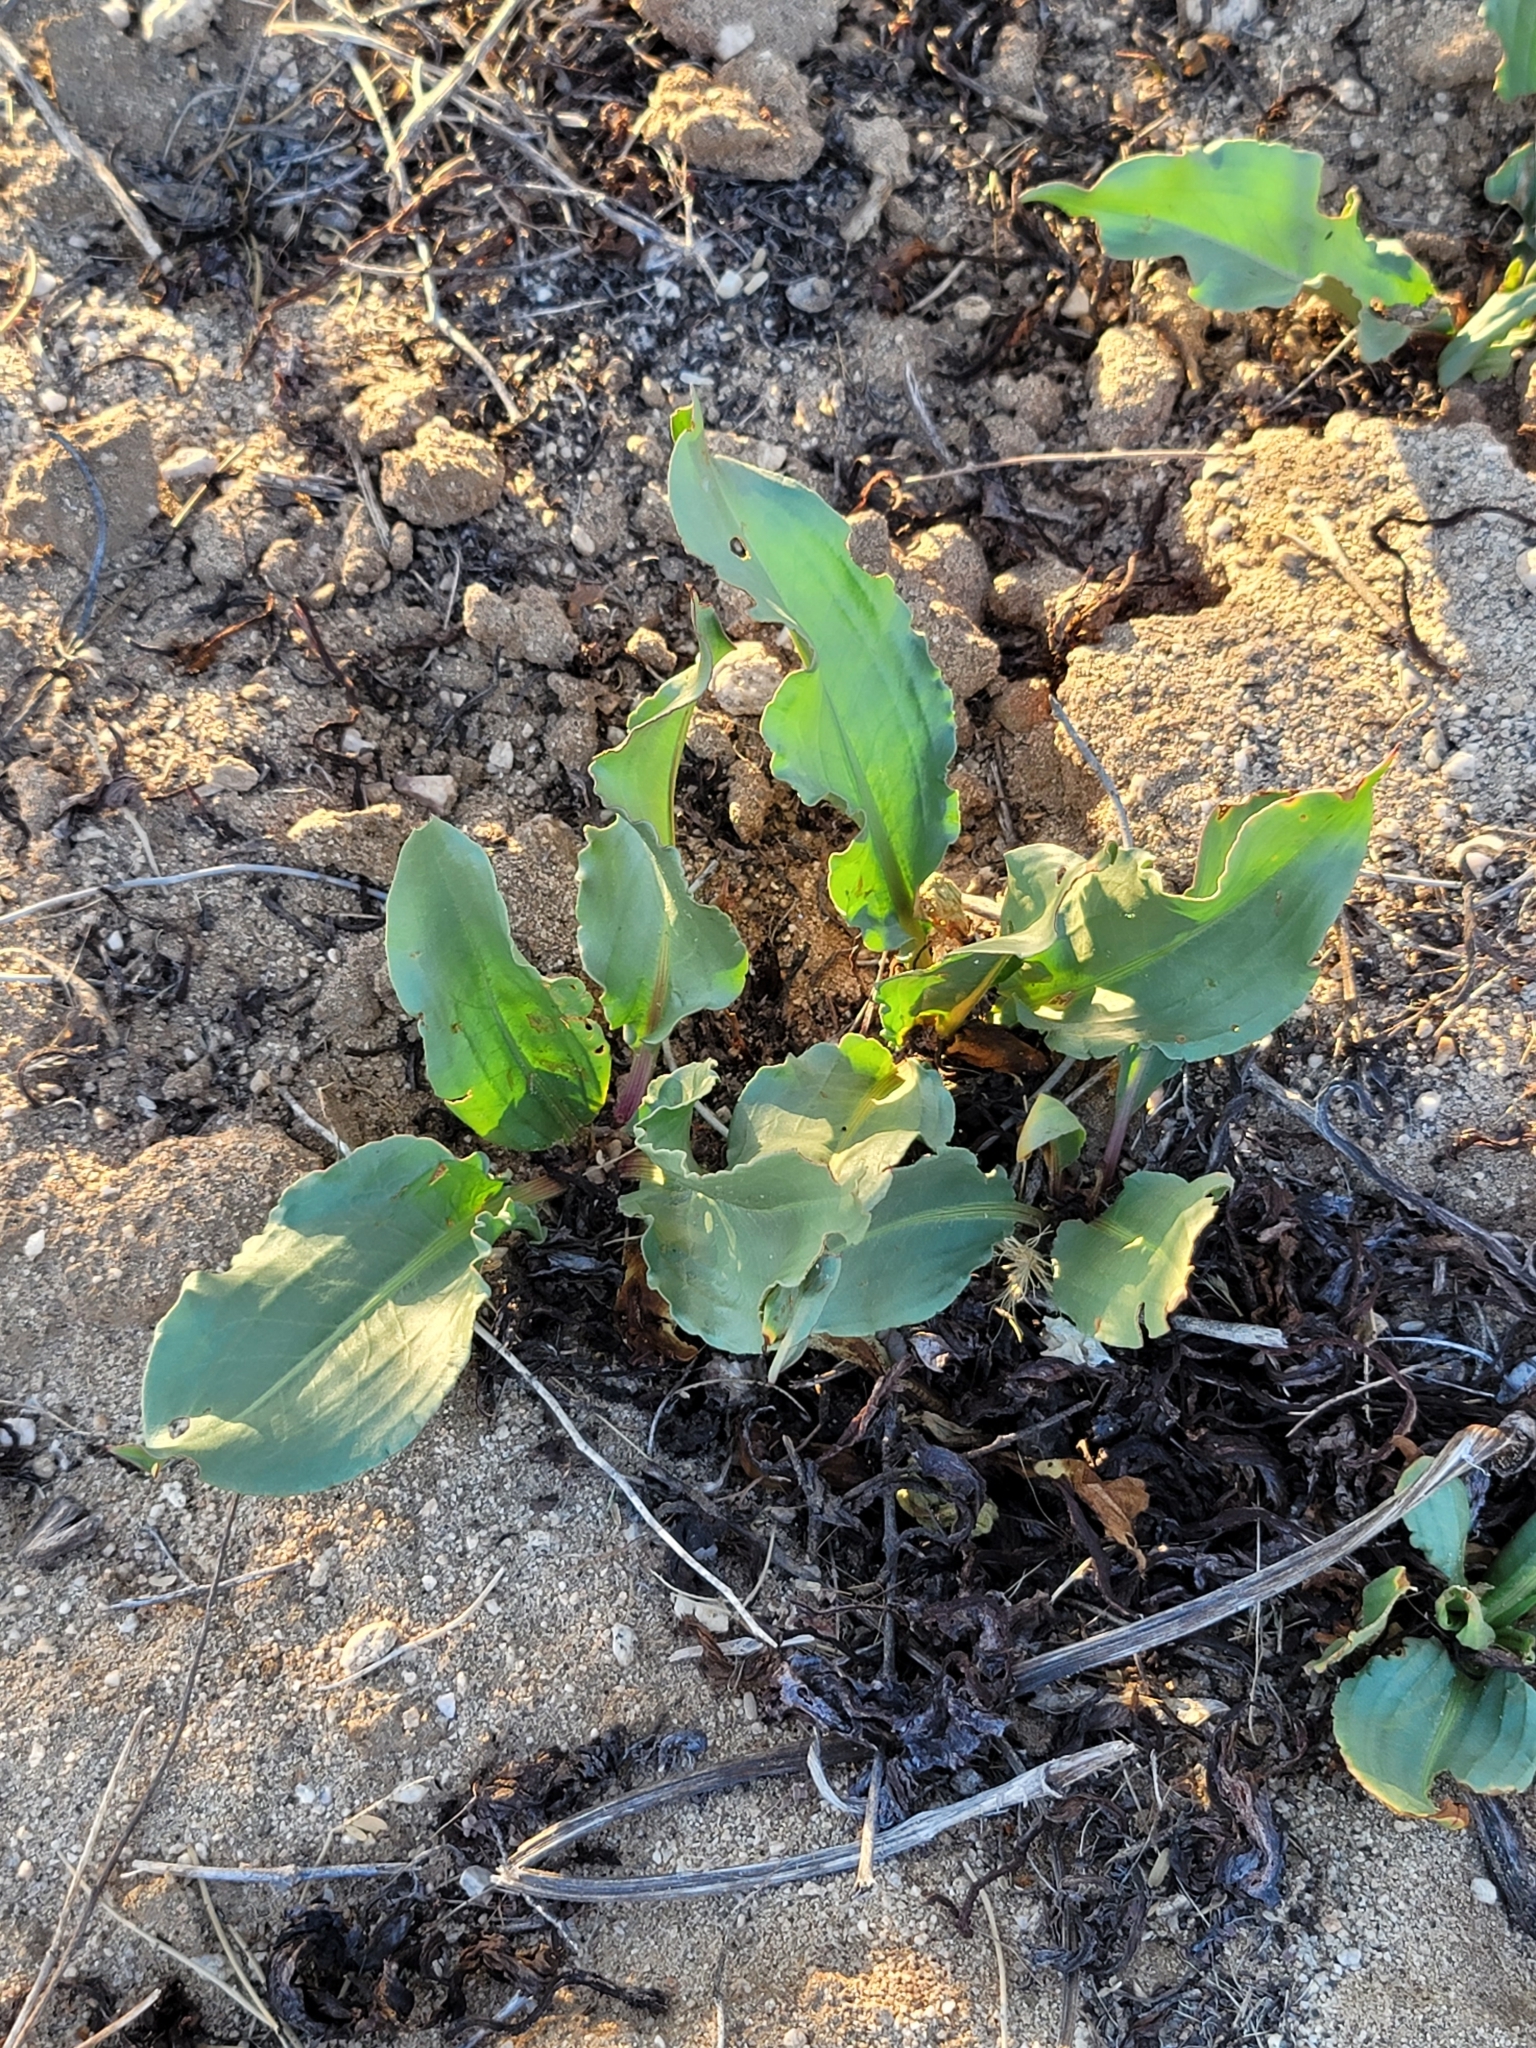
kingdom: Plantae
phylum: Tracheophyta
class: Magnoliopsida
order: Caryophyllales
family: Polygonaceae
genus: Rumex
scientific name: Rumex hymenosepalus
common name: Ganagra
